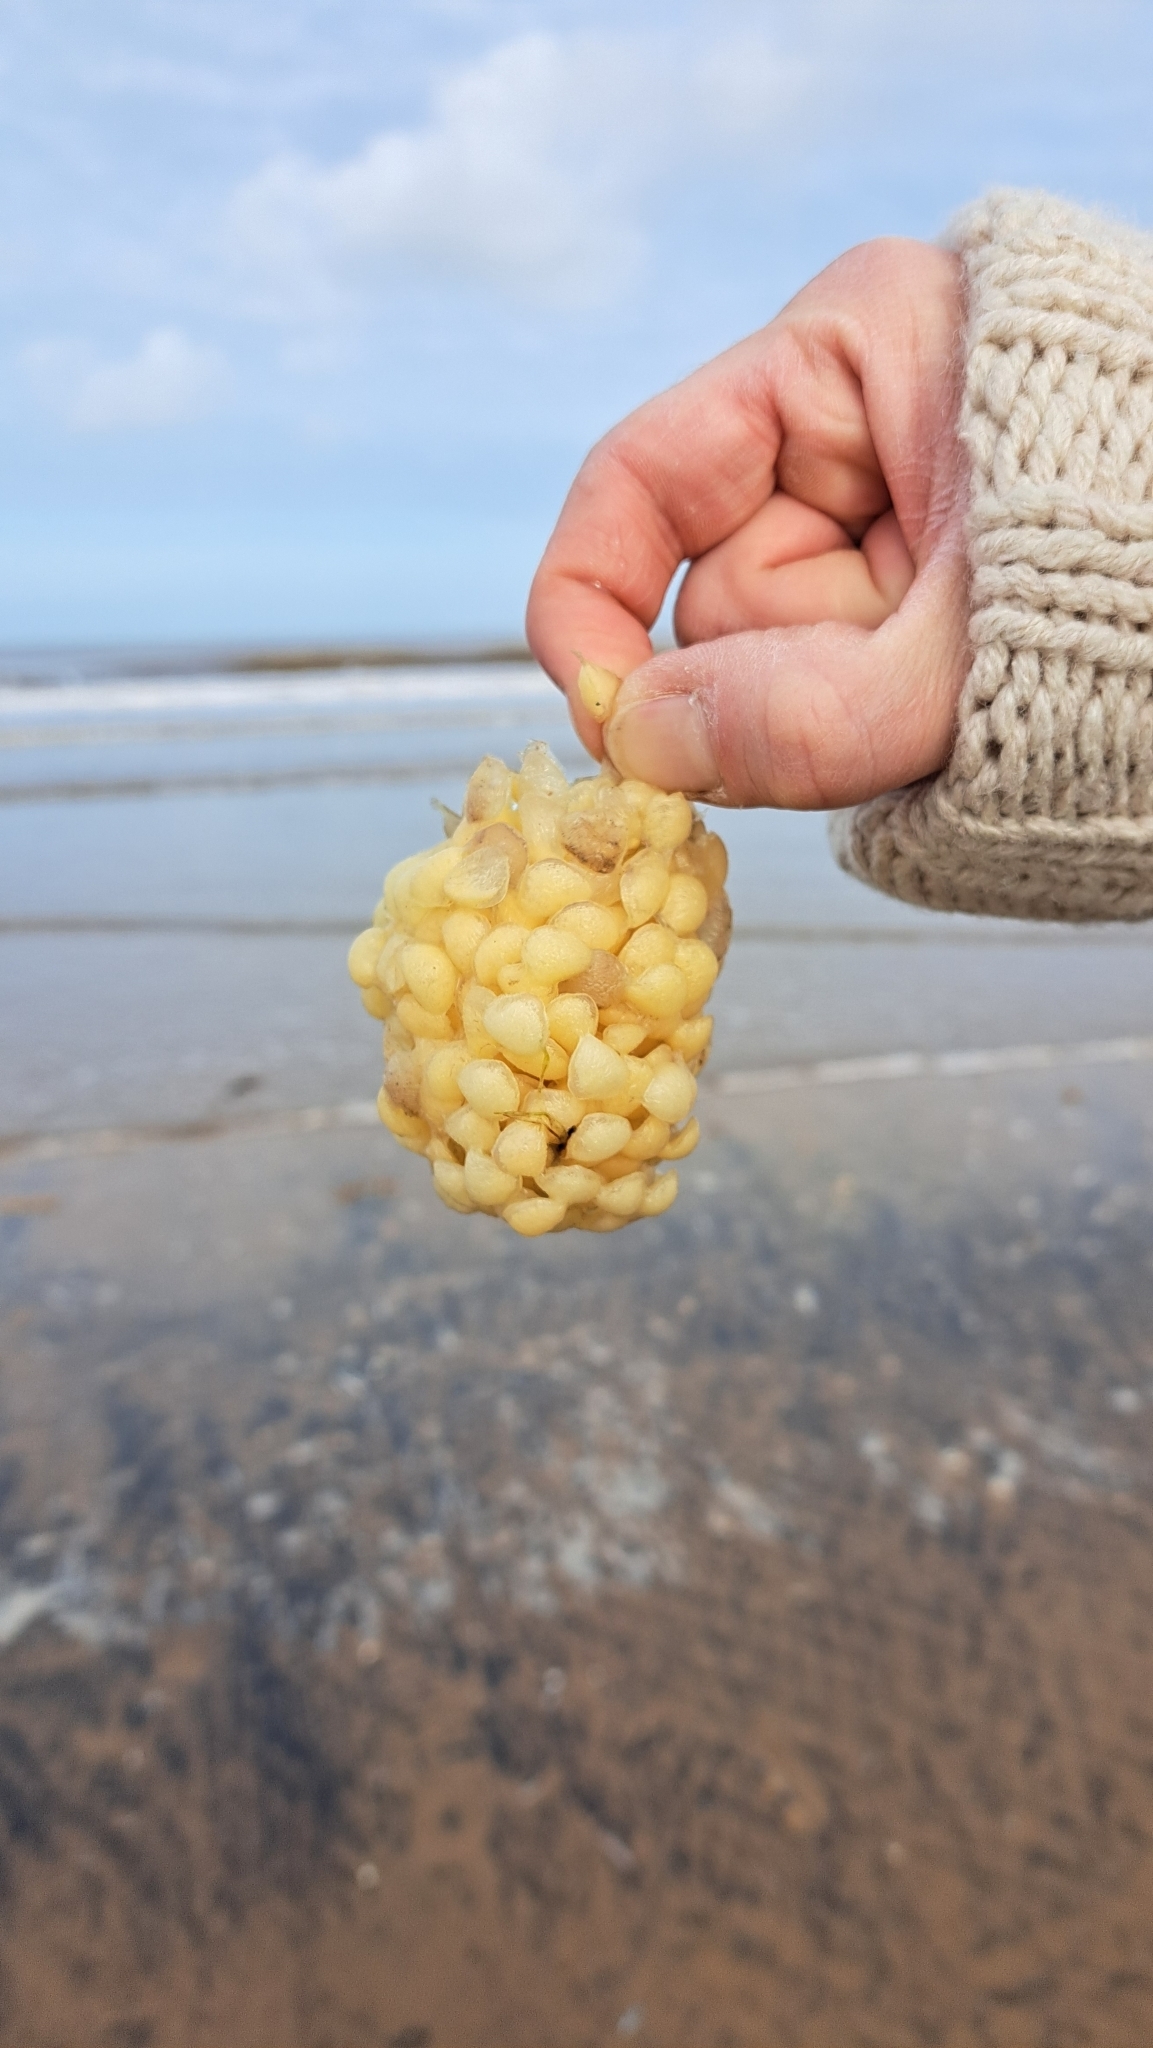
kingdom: Animalia
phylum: Mollusca
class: Gastropoda
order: Neogastropoda
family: Buccinidae
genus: Buccinum
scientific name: Buccinum undatum
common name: Common whelk
